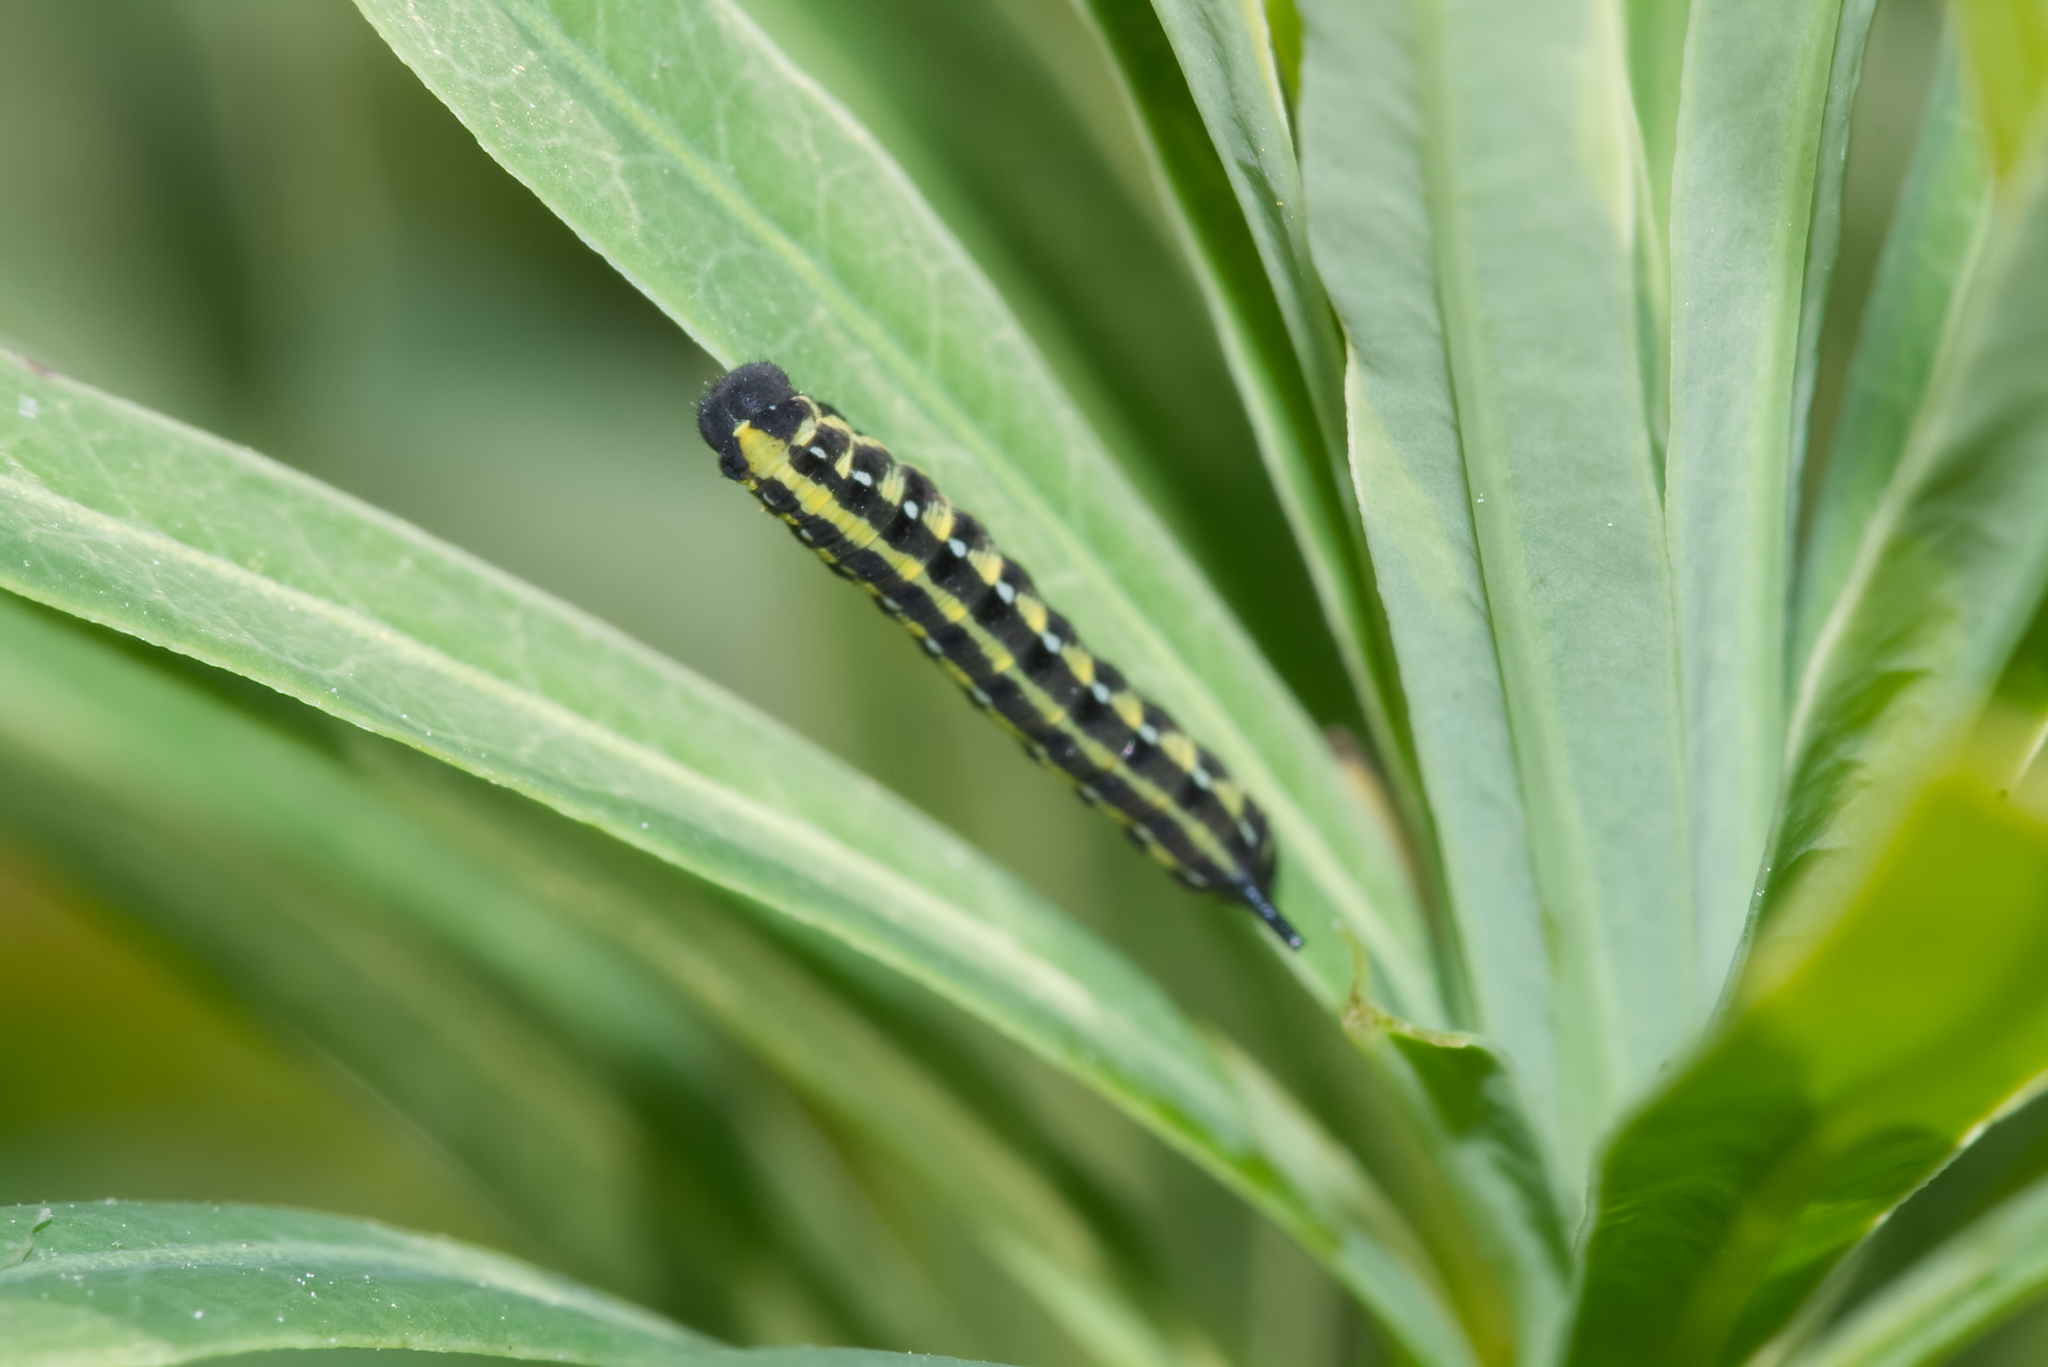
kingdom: Animalia
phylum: Arthropoda
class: Insecta
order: Lepidoptera
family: Sphingidae
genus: Hyles
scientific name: Hyles euphorbiae
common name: Spurge hawk-moth
